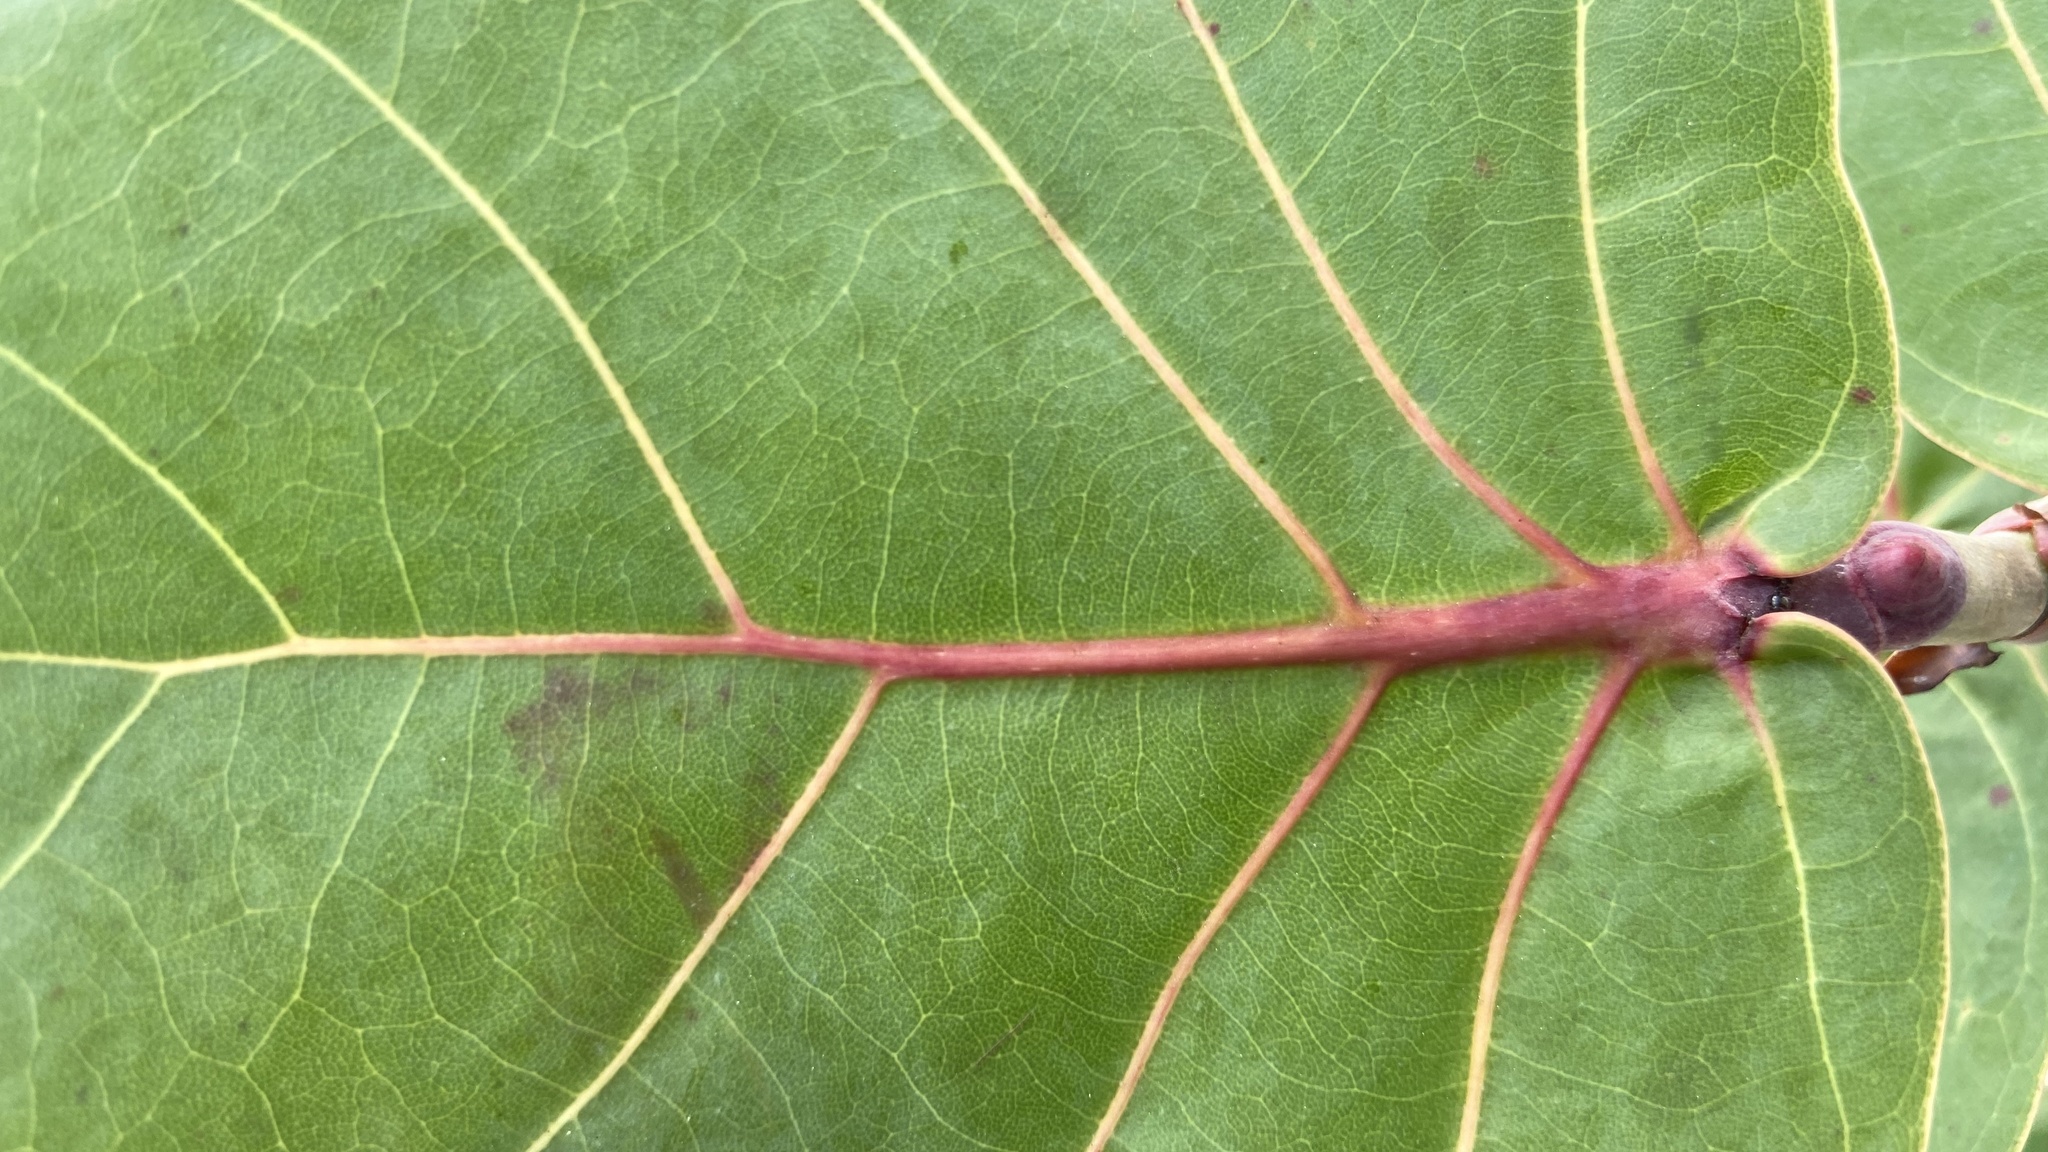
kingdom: Plantae
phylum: Tracheophyta
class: Magnoliopsida
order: Caryophyllales
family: Polygonaceae
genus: Coccoloba
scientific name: Coccoloba uvifera
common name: Seagrape
